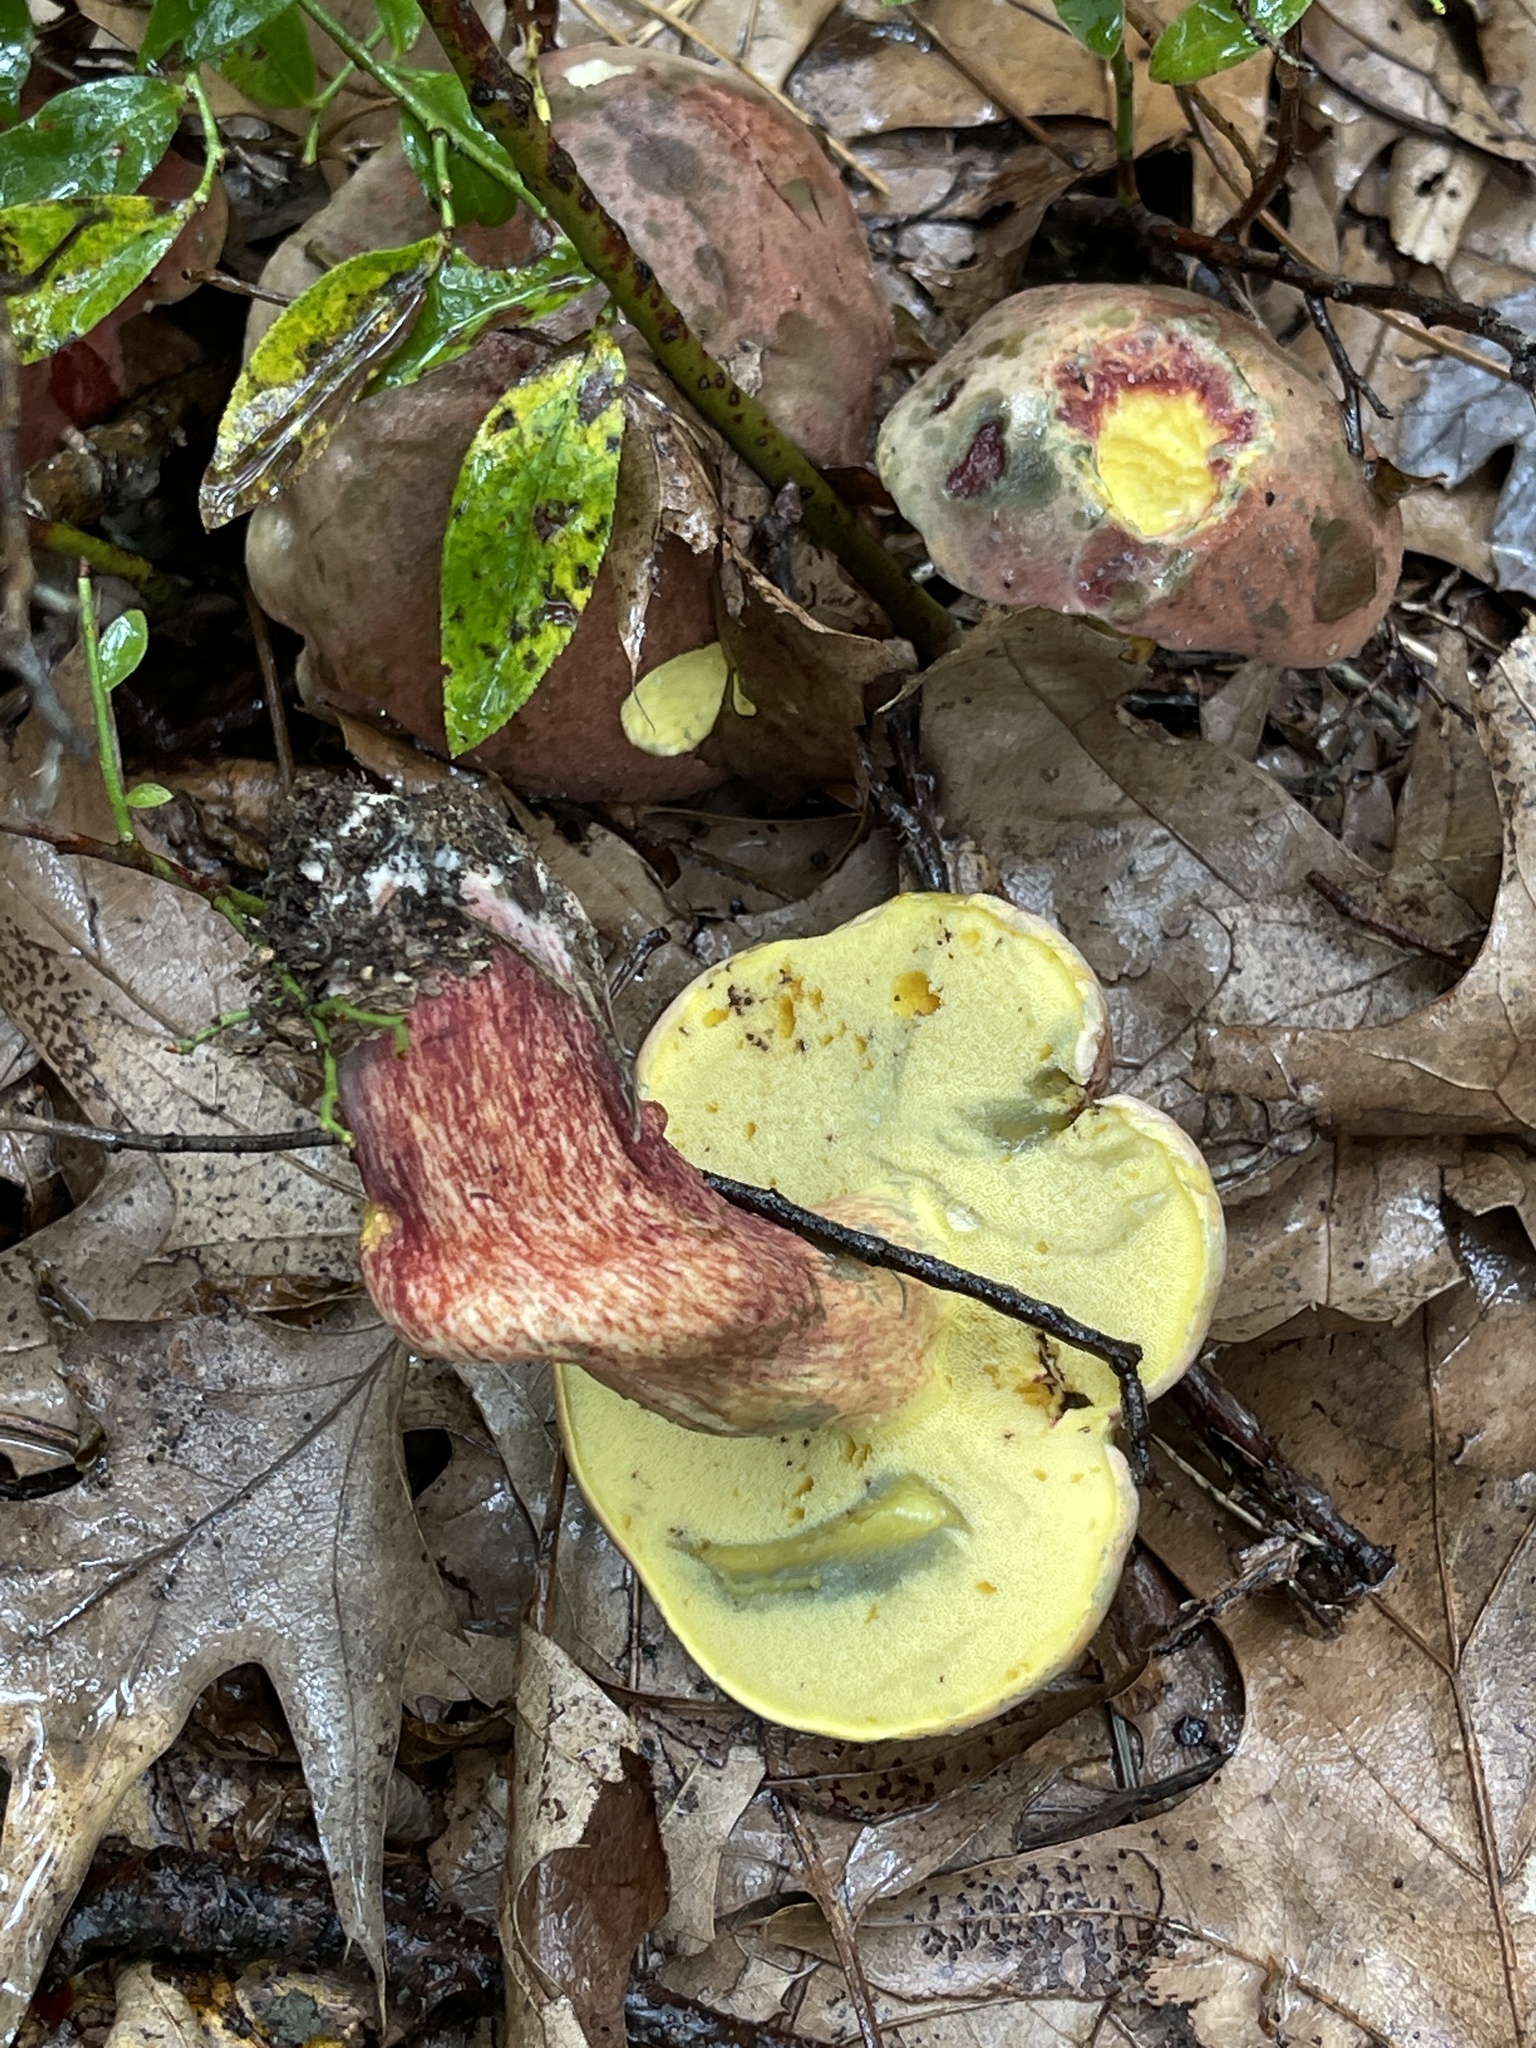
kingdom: Fungi
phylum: Basidiomycota
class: Agaricomycetes
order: Boletales
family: Boletaceae
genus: Baorangia
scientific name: Baorangia bicolor
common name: Two-colored bolete
